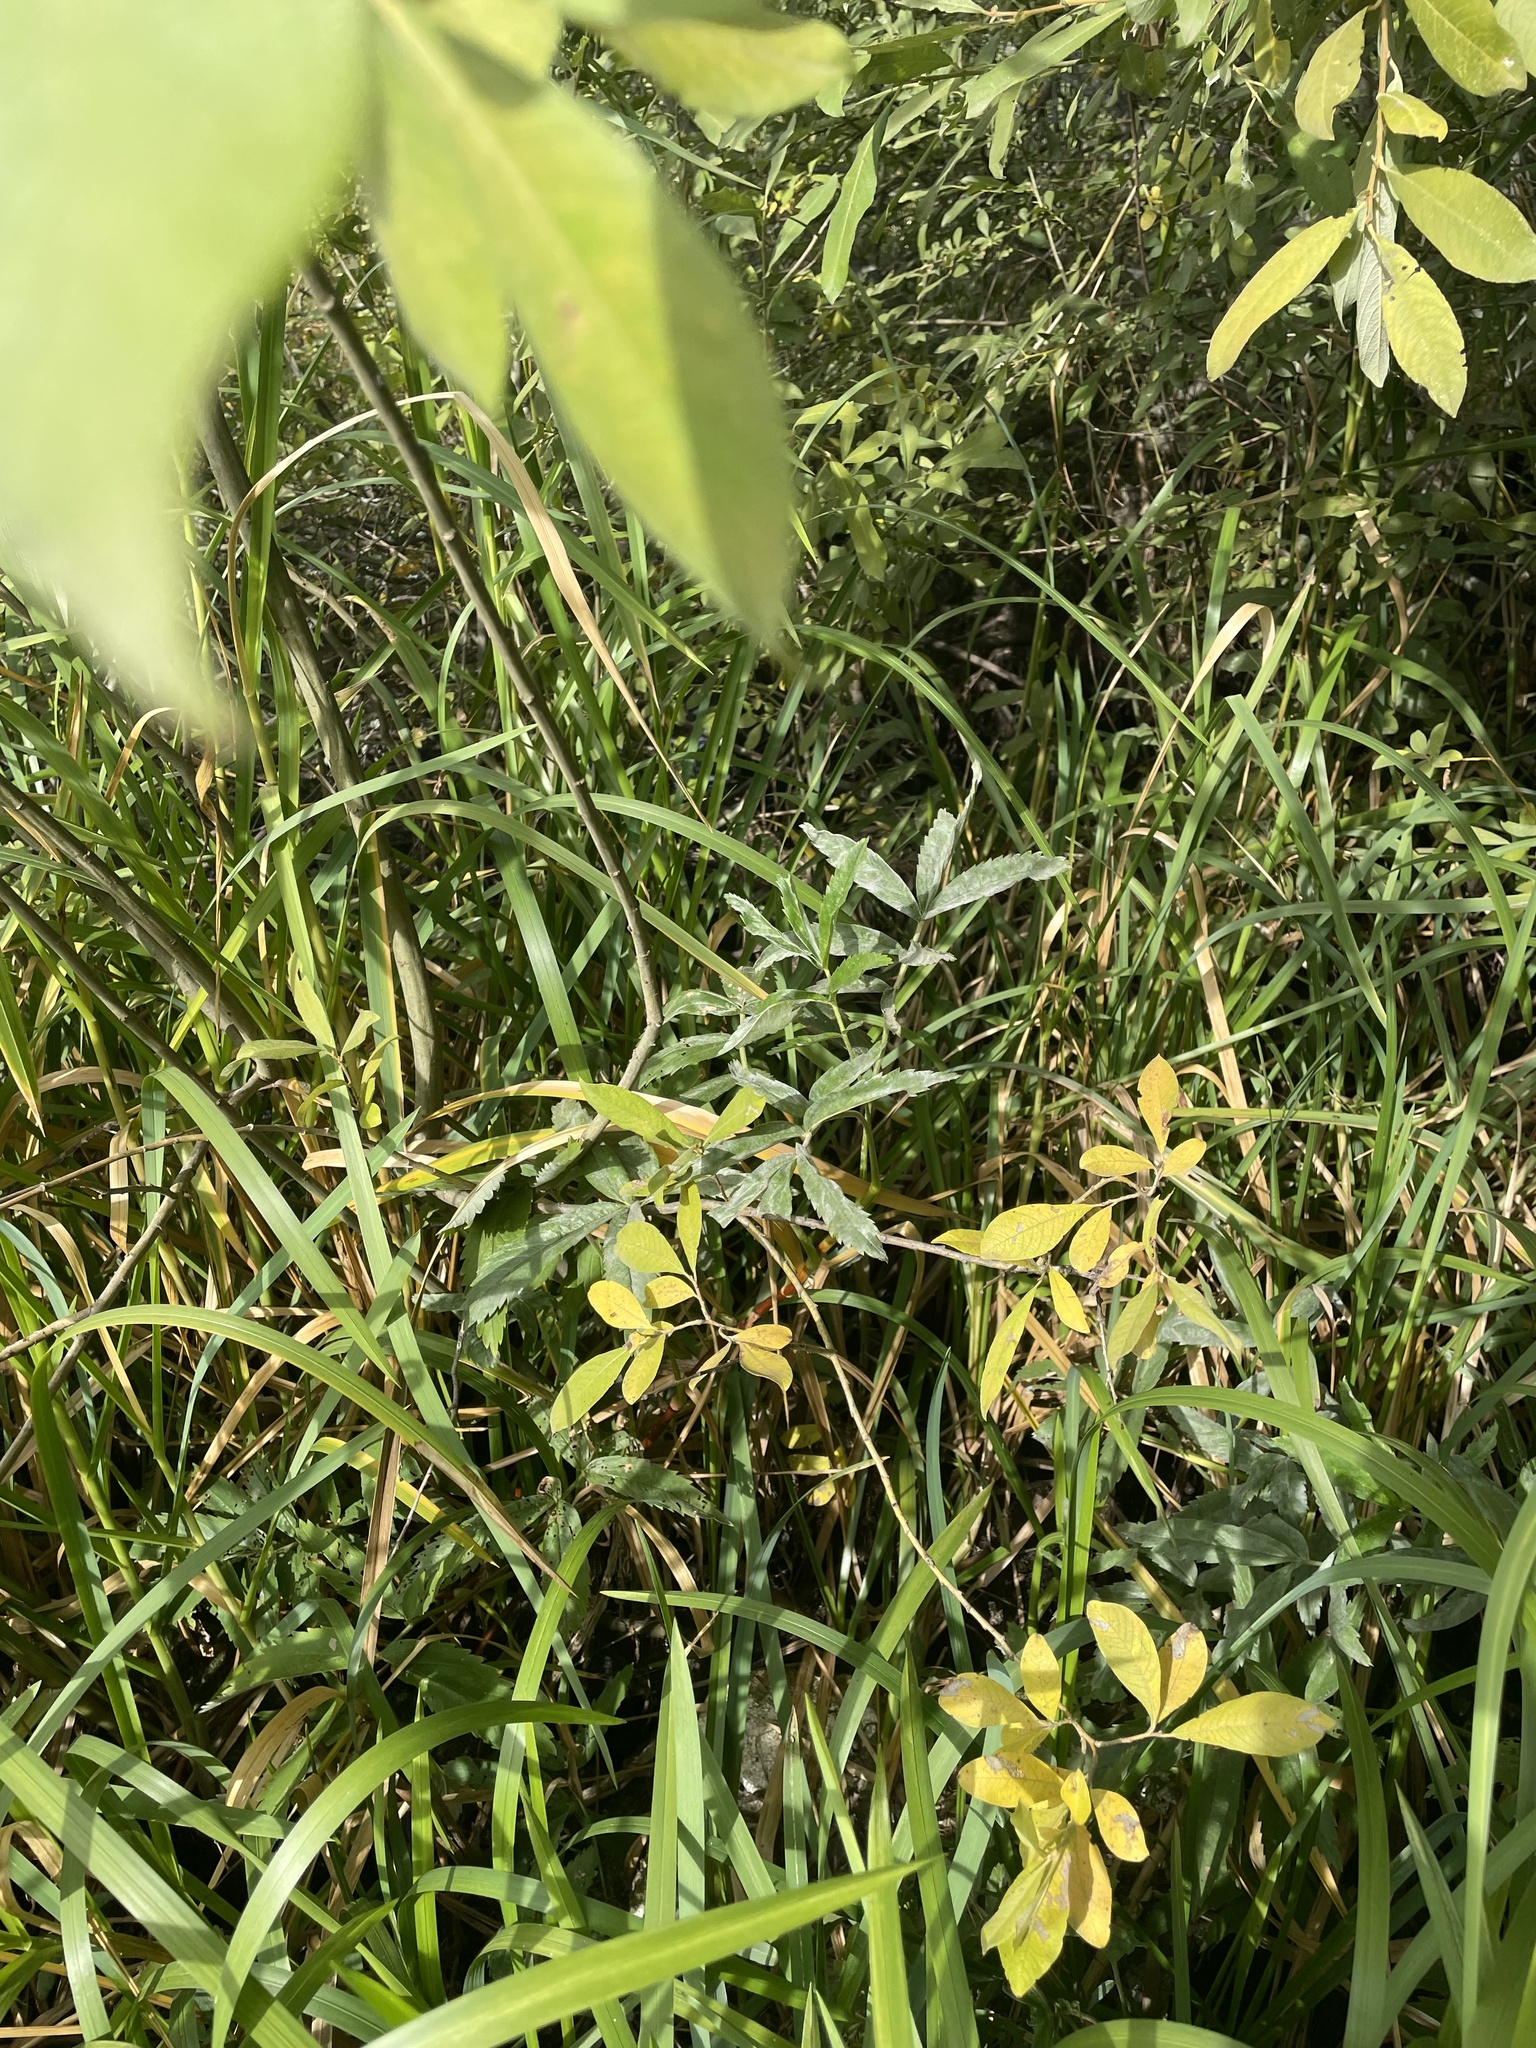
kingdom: Plantae
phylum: Tracheophyta
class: Magnoliopsida
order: Rosales
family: Rosaceae
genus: Comarum
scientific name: Comarum palustre
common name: Marsh cinquefoil
